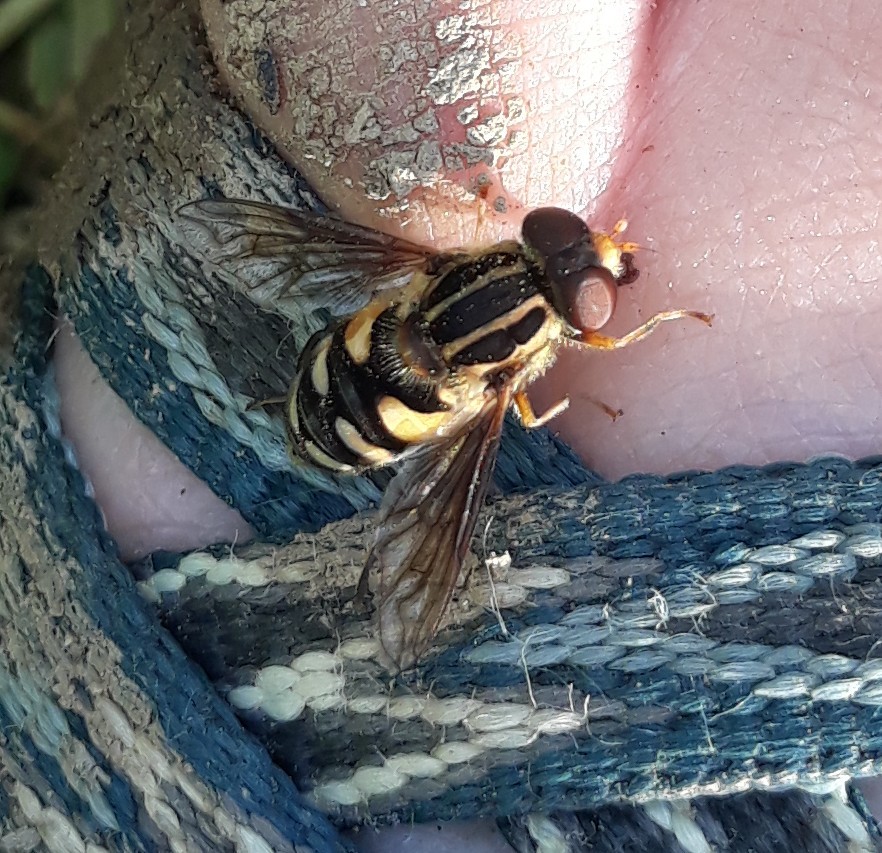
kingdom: Animalia
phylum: Arthropoda
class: Insecta
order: Diptera
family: Syrphidae
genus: Parhelophilus
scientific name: Parhelophilus flavifacies
